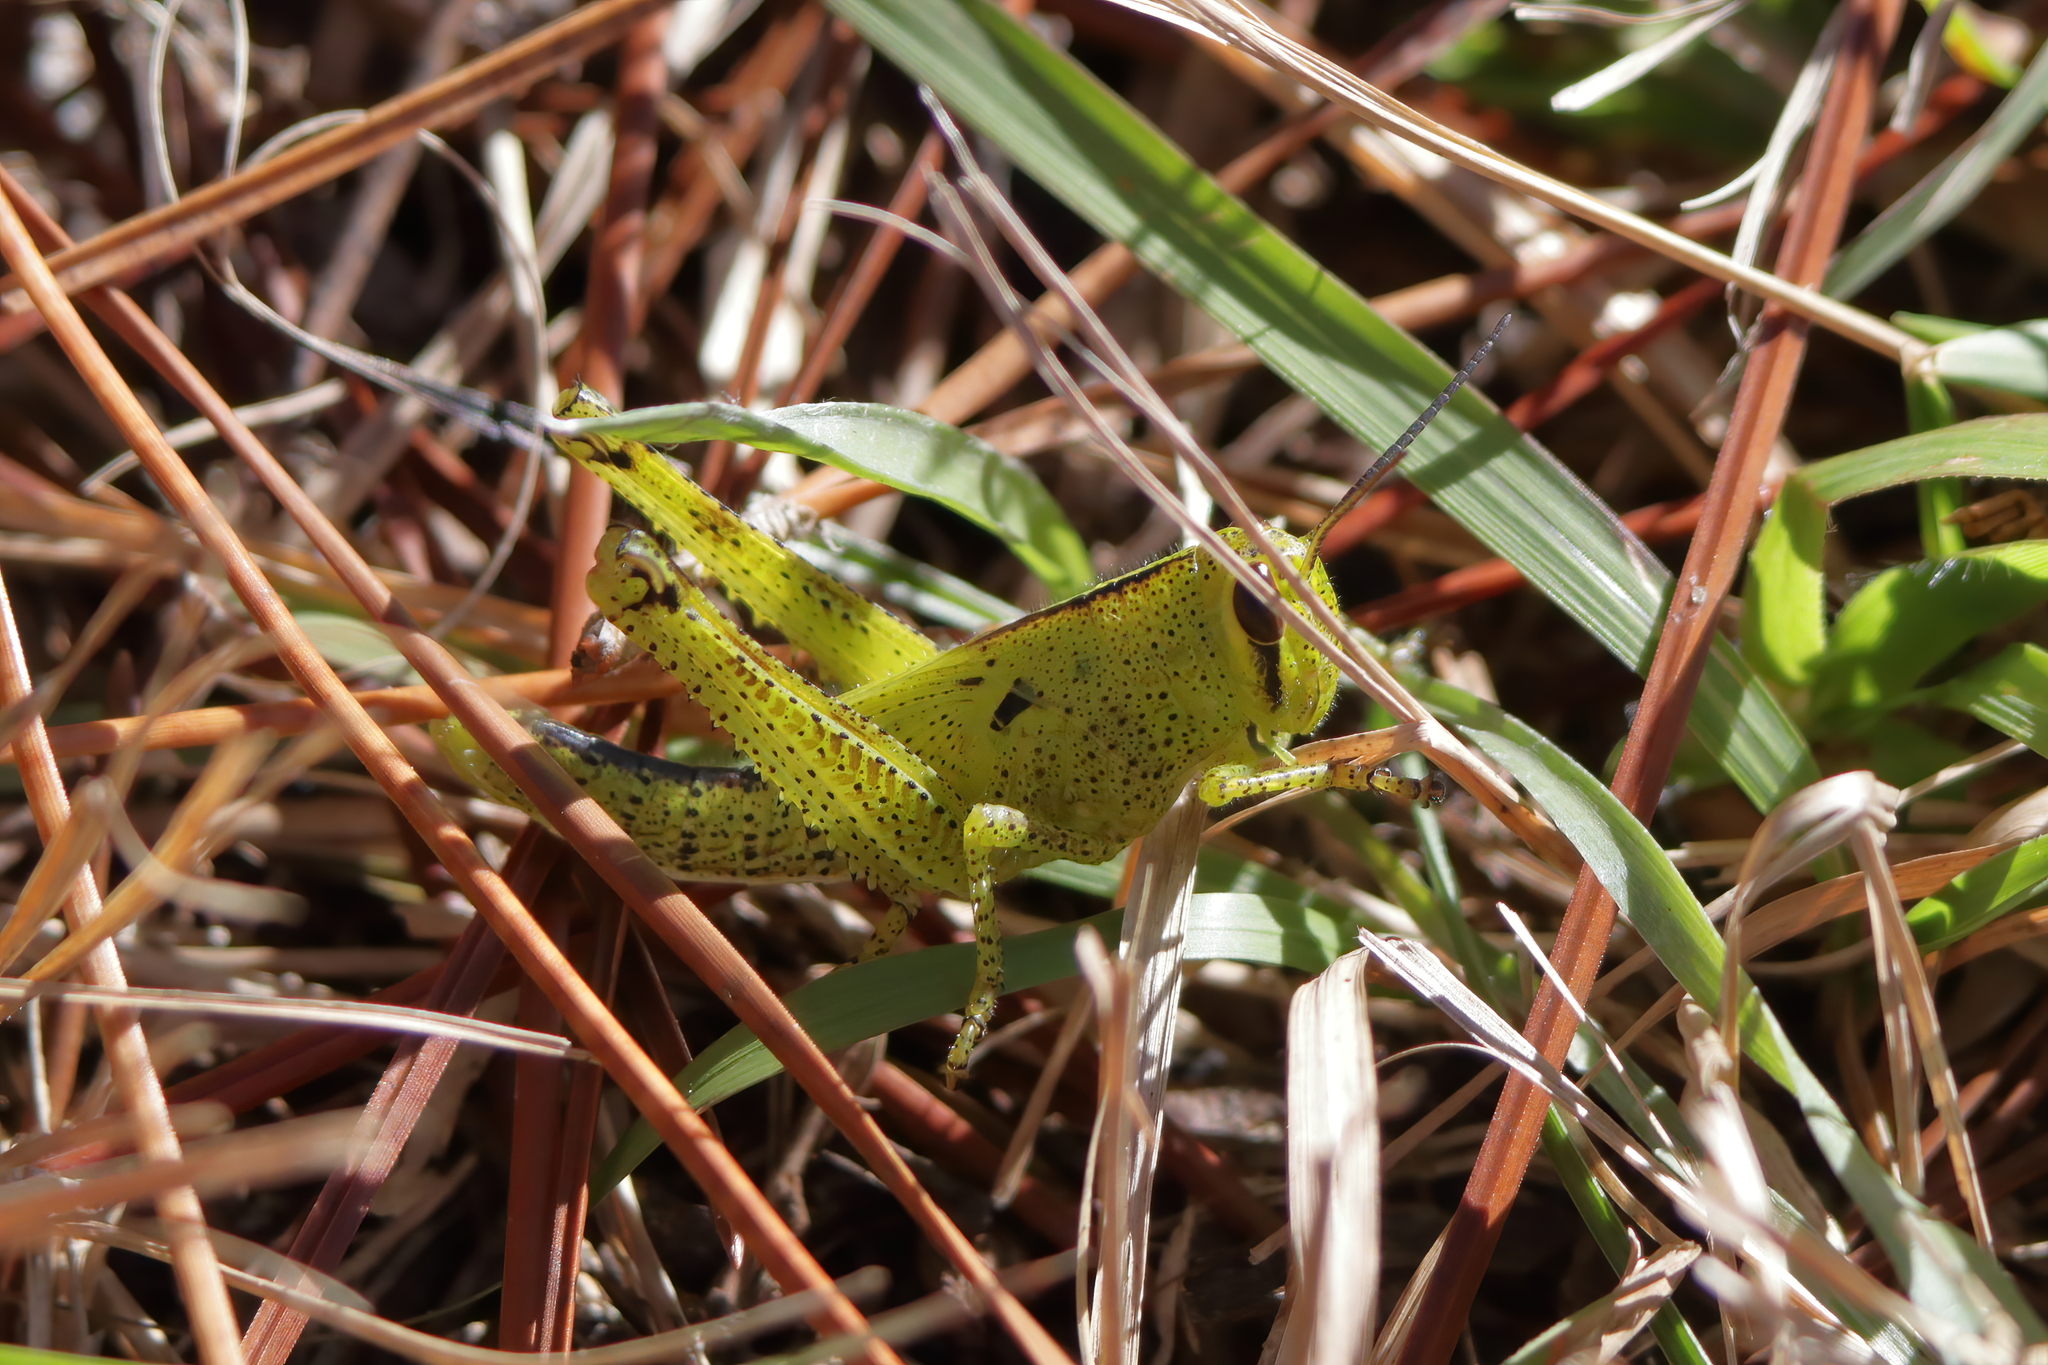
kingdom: Animalia
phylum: Arthropoda
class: Insecta
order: Orthoptera
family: Acrididae
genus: Schistocerca
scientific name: Schistocerca americana
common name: American bird locust
